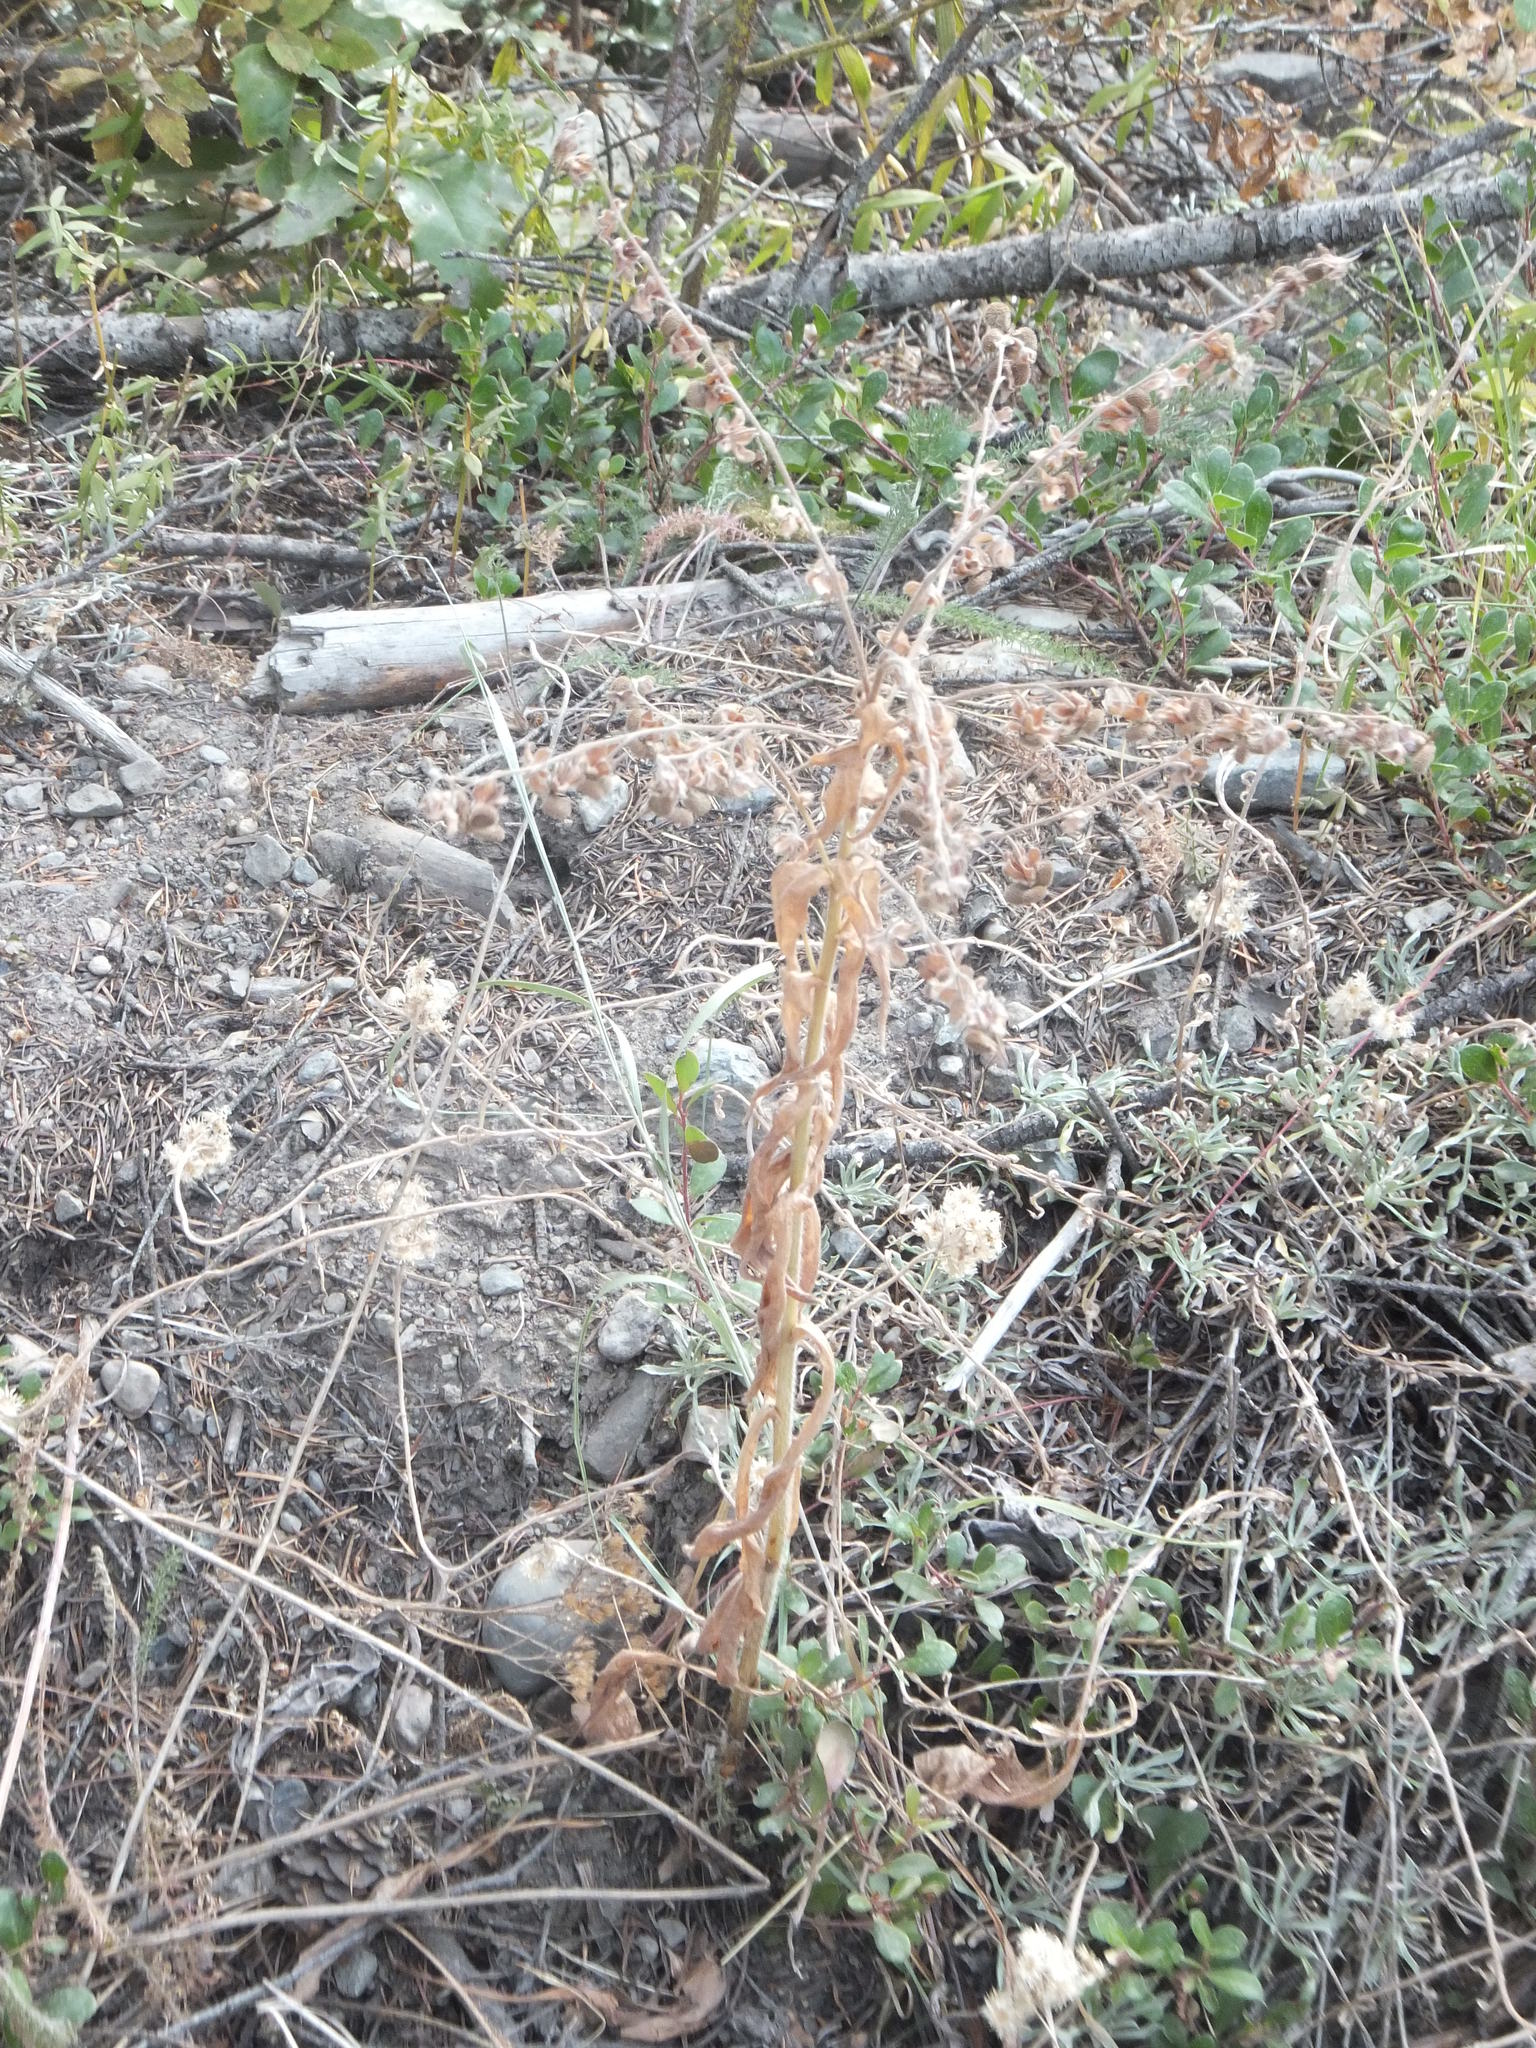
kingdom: Plantae
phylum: Tracheophyta
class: Magnoliopsida
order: Boraginales
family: Boraginaceae
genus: Cynoglossum
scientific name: Cynoglossum officinale
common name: Hound's-tongue
